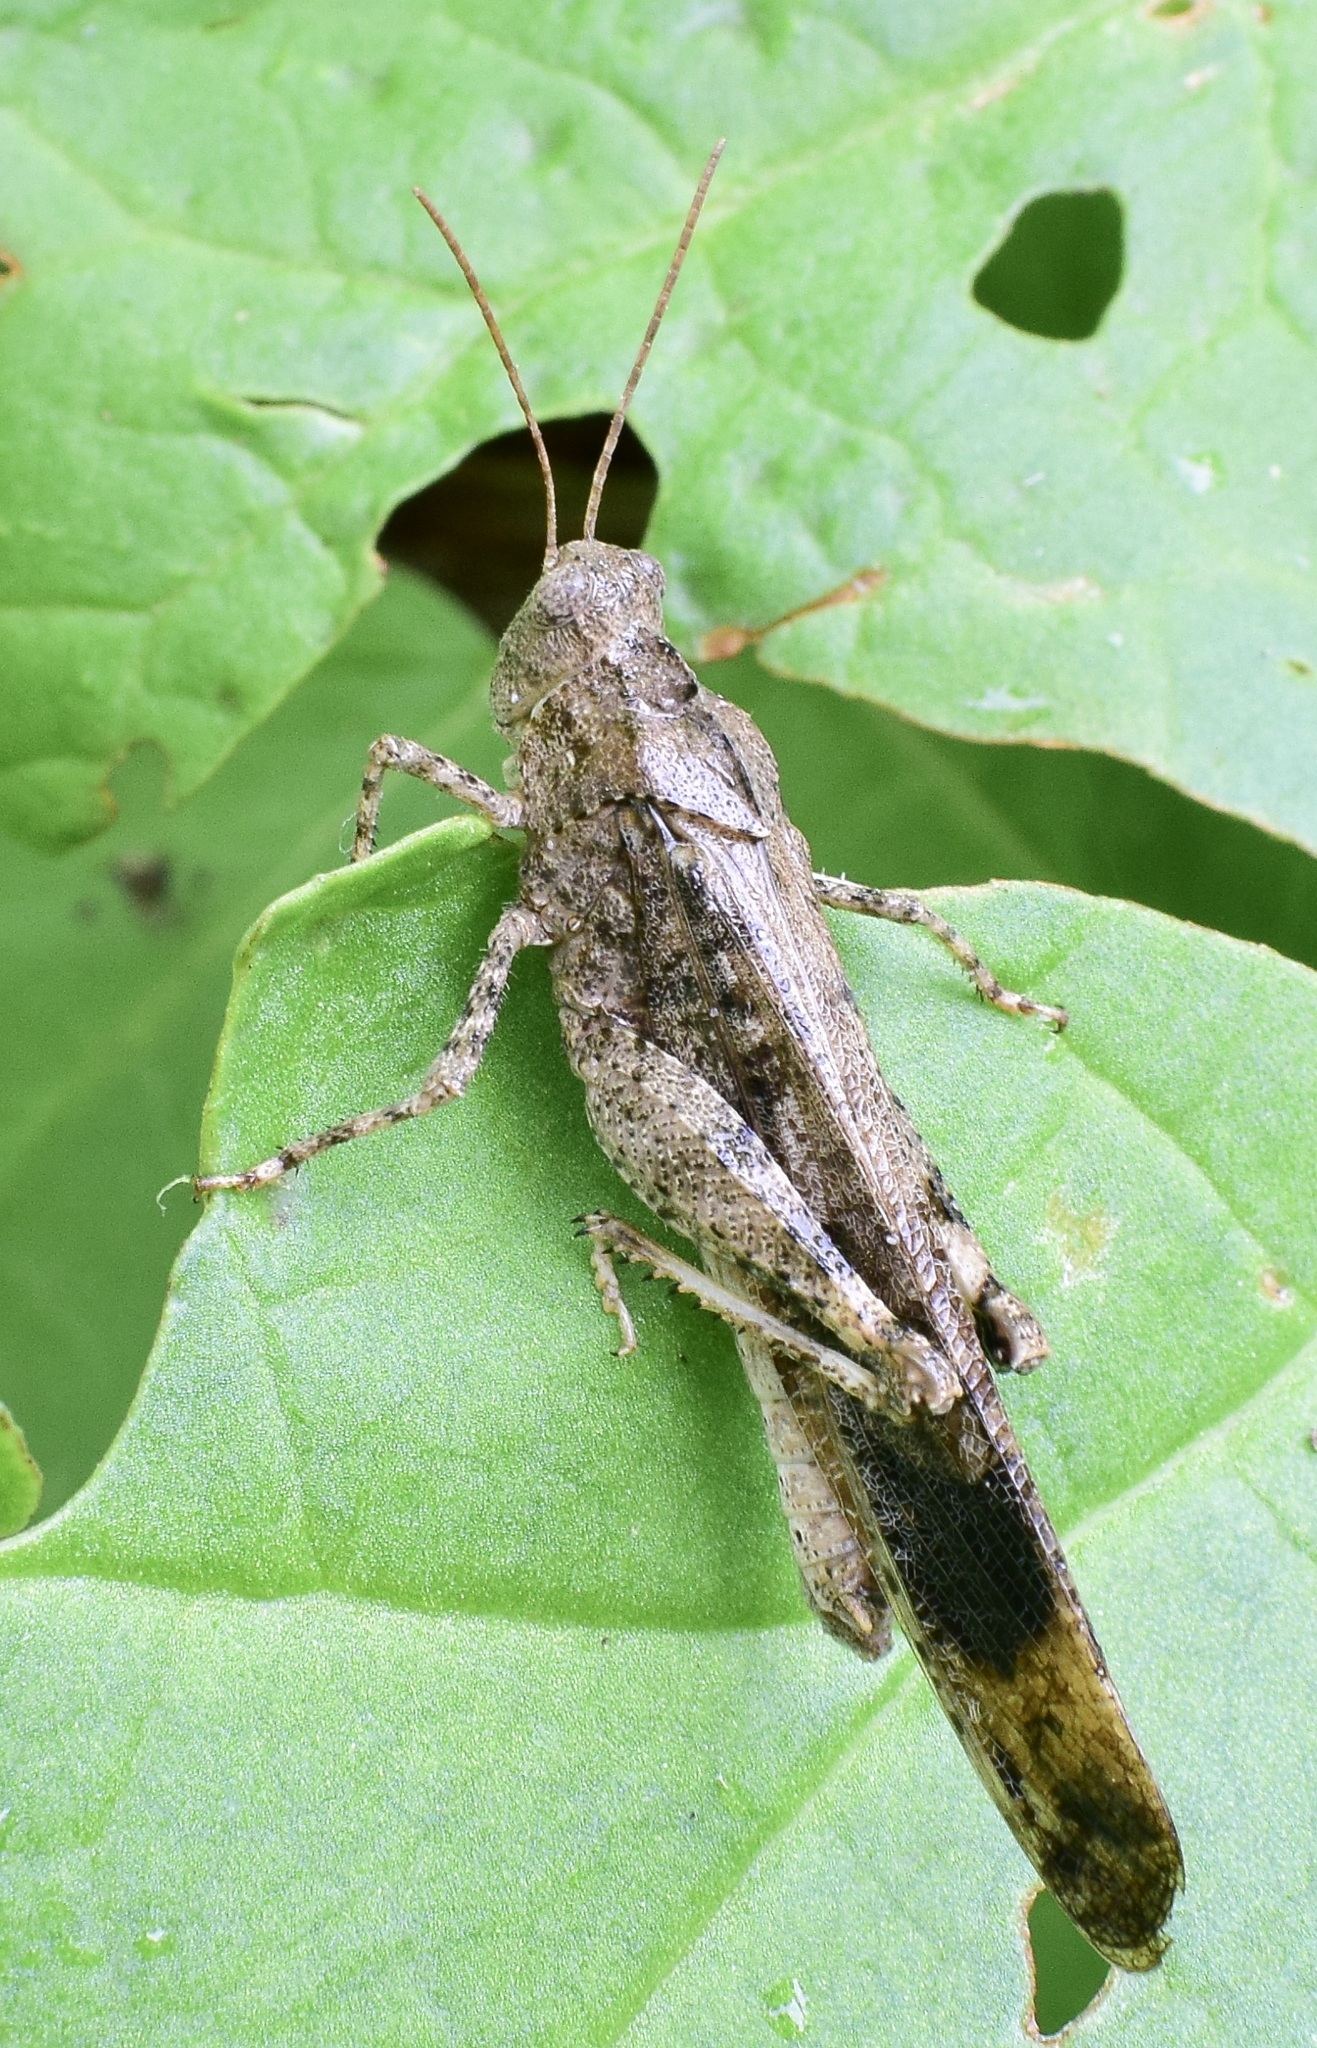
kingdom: Animalia
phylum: Arthropoda
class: Insecta
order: Orthoptera
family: Acrididae
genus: Dissosteira
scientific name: Dissosteira carolina
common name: Carolina grasshopper
